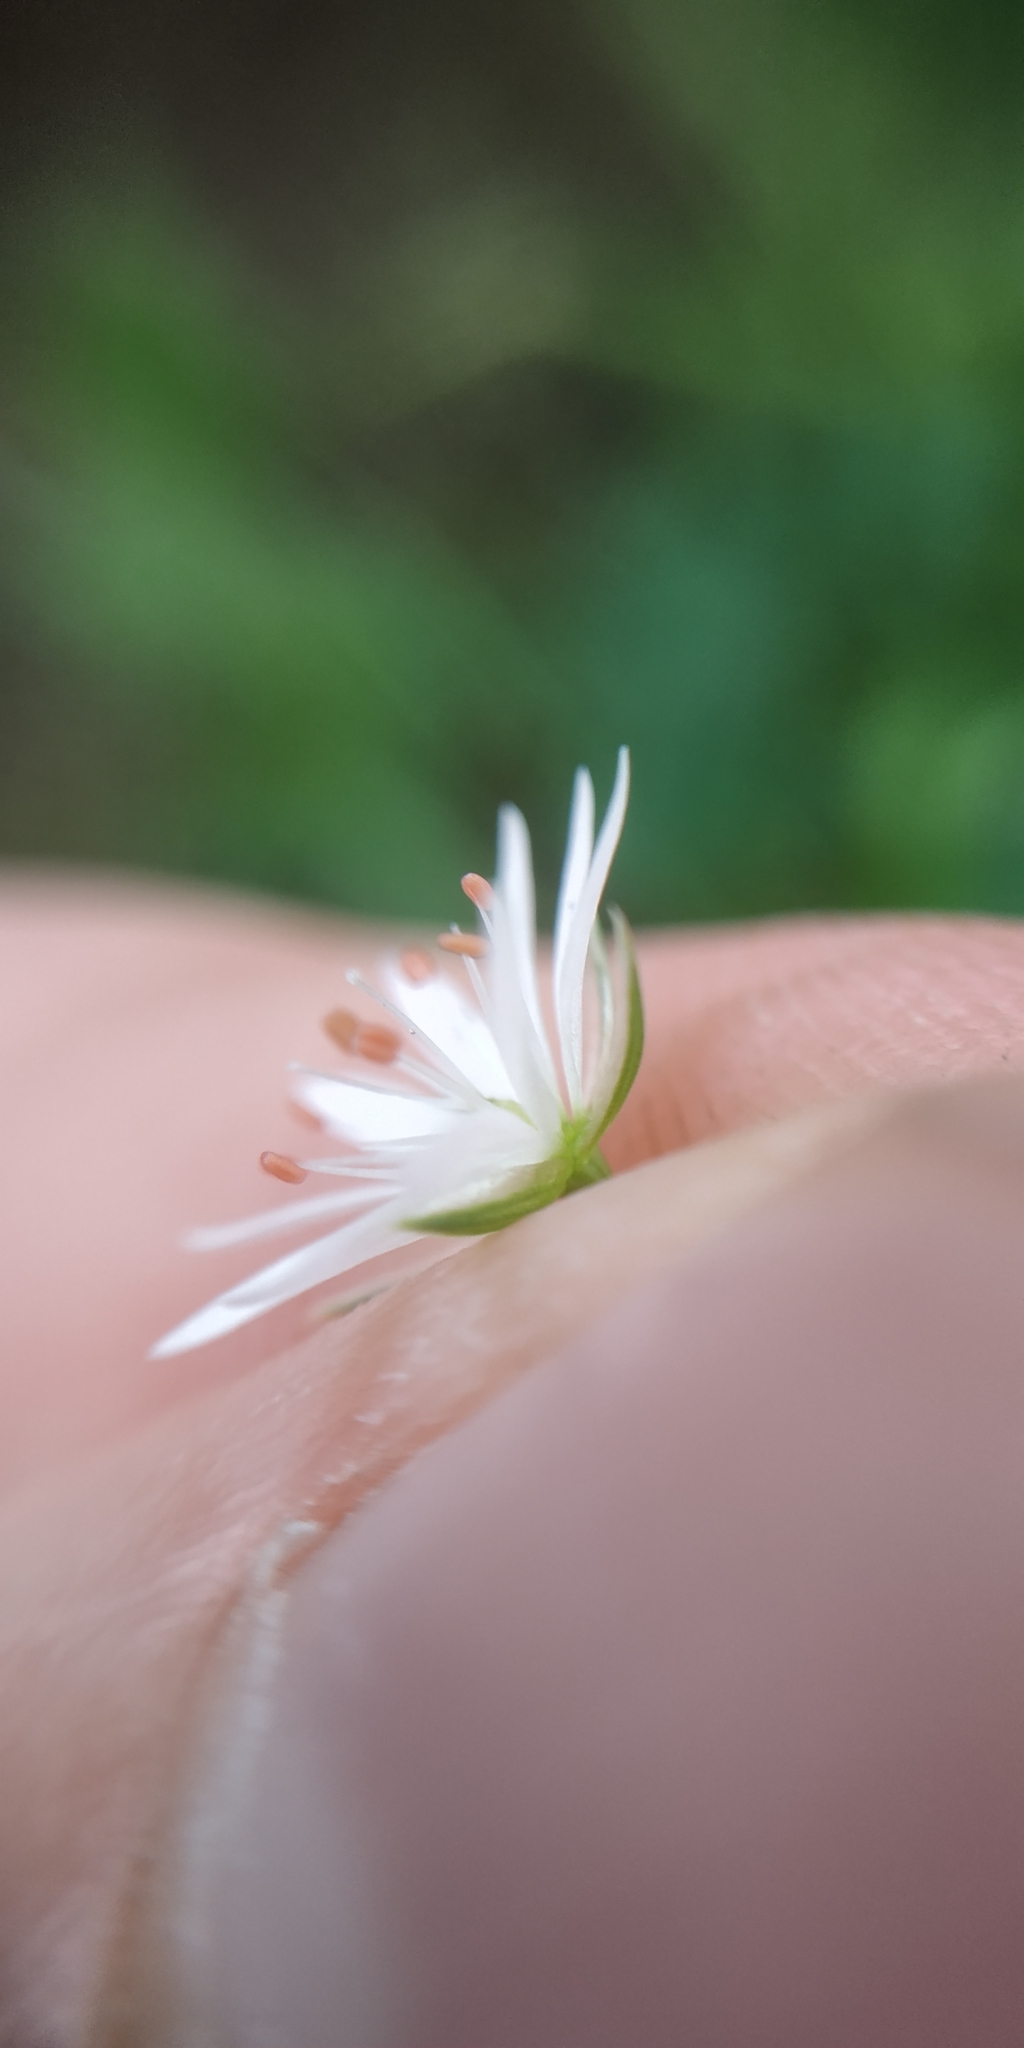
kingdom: Plantae
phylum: Tracheophyta
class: Magnoliopsida
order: Caryophyllales
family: Caryophyllaceae
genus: Stellaria
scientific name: Stellaria graminea
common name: Grass-like starwort
